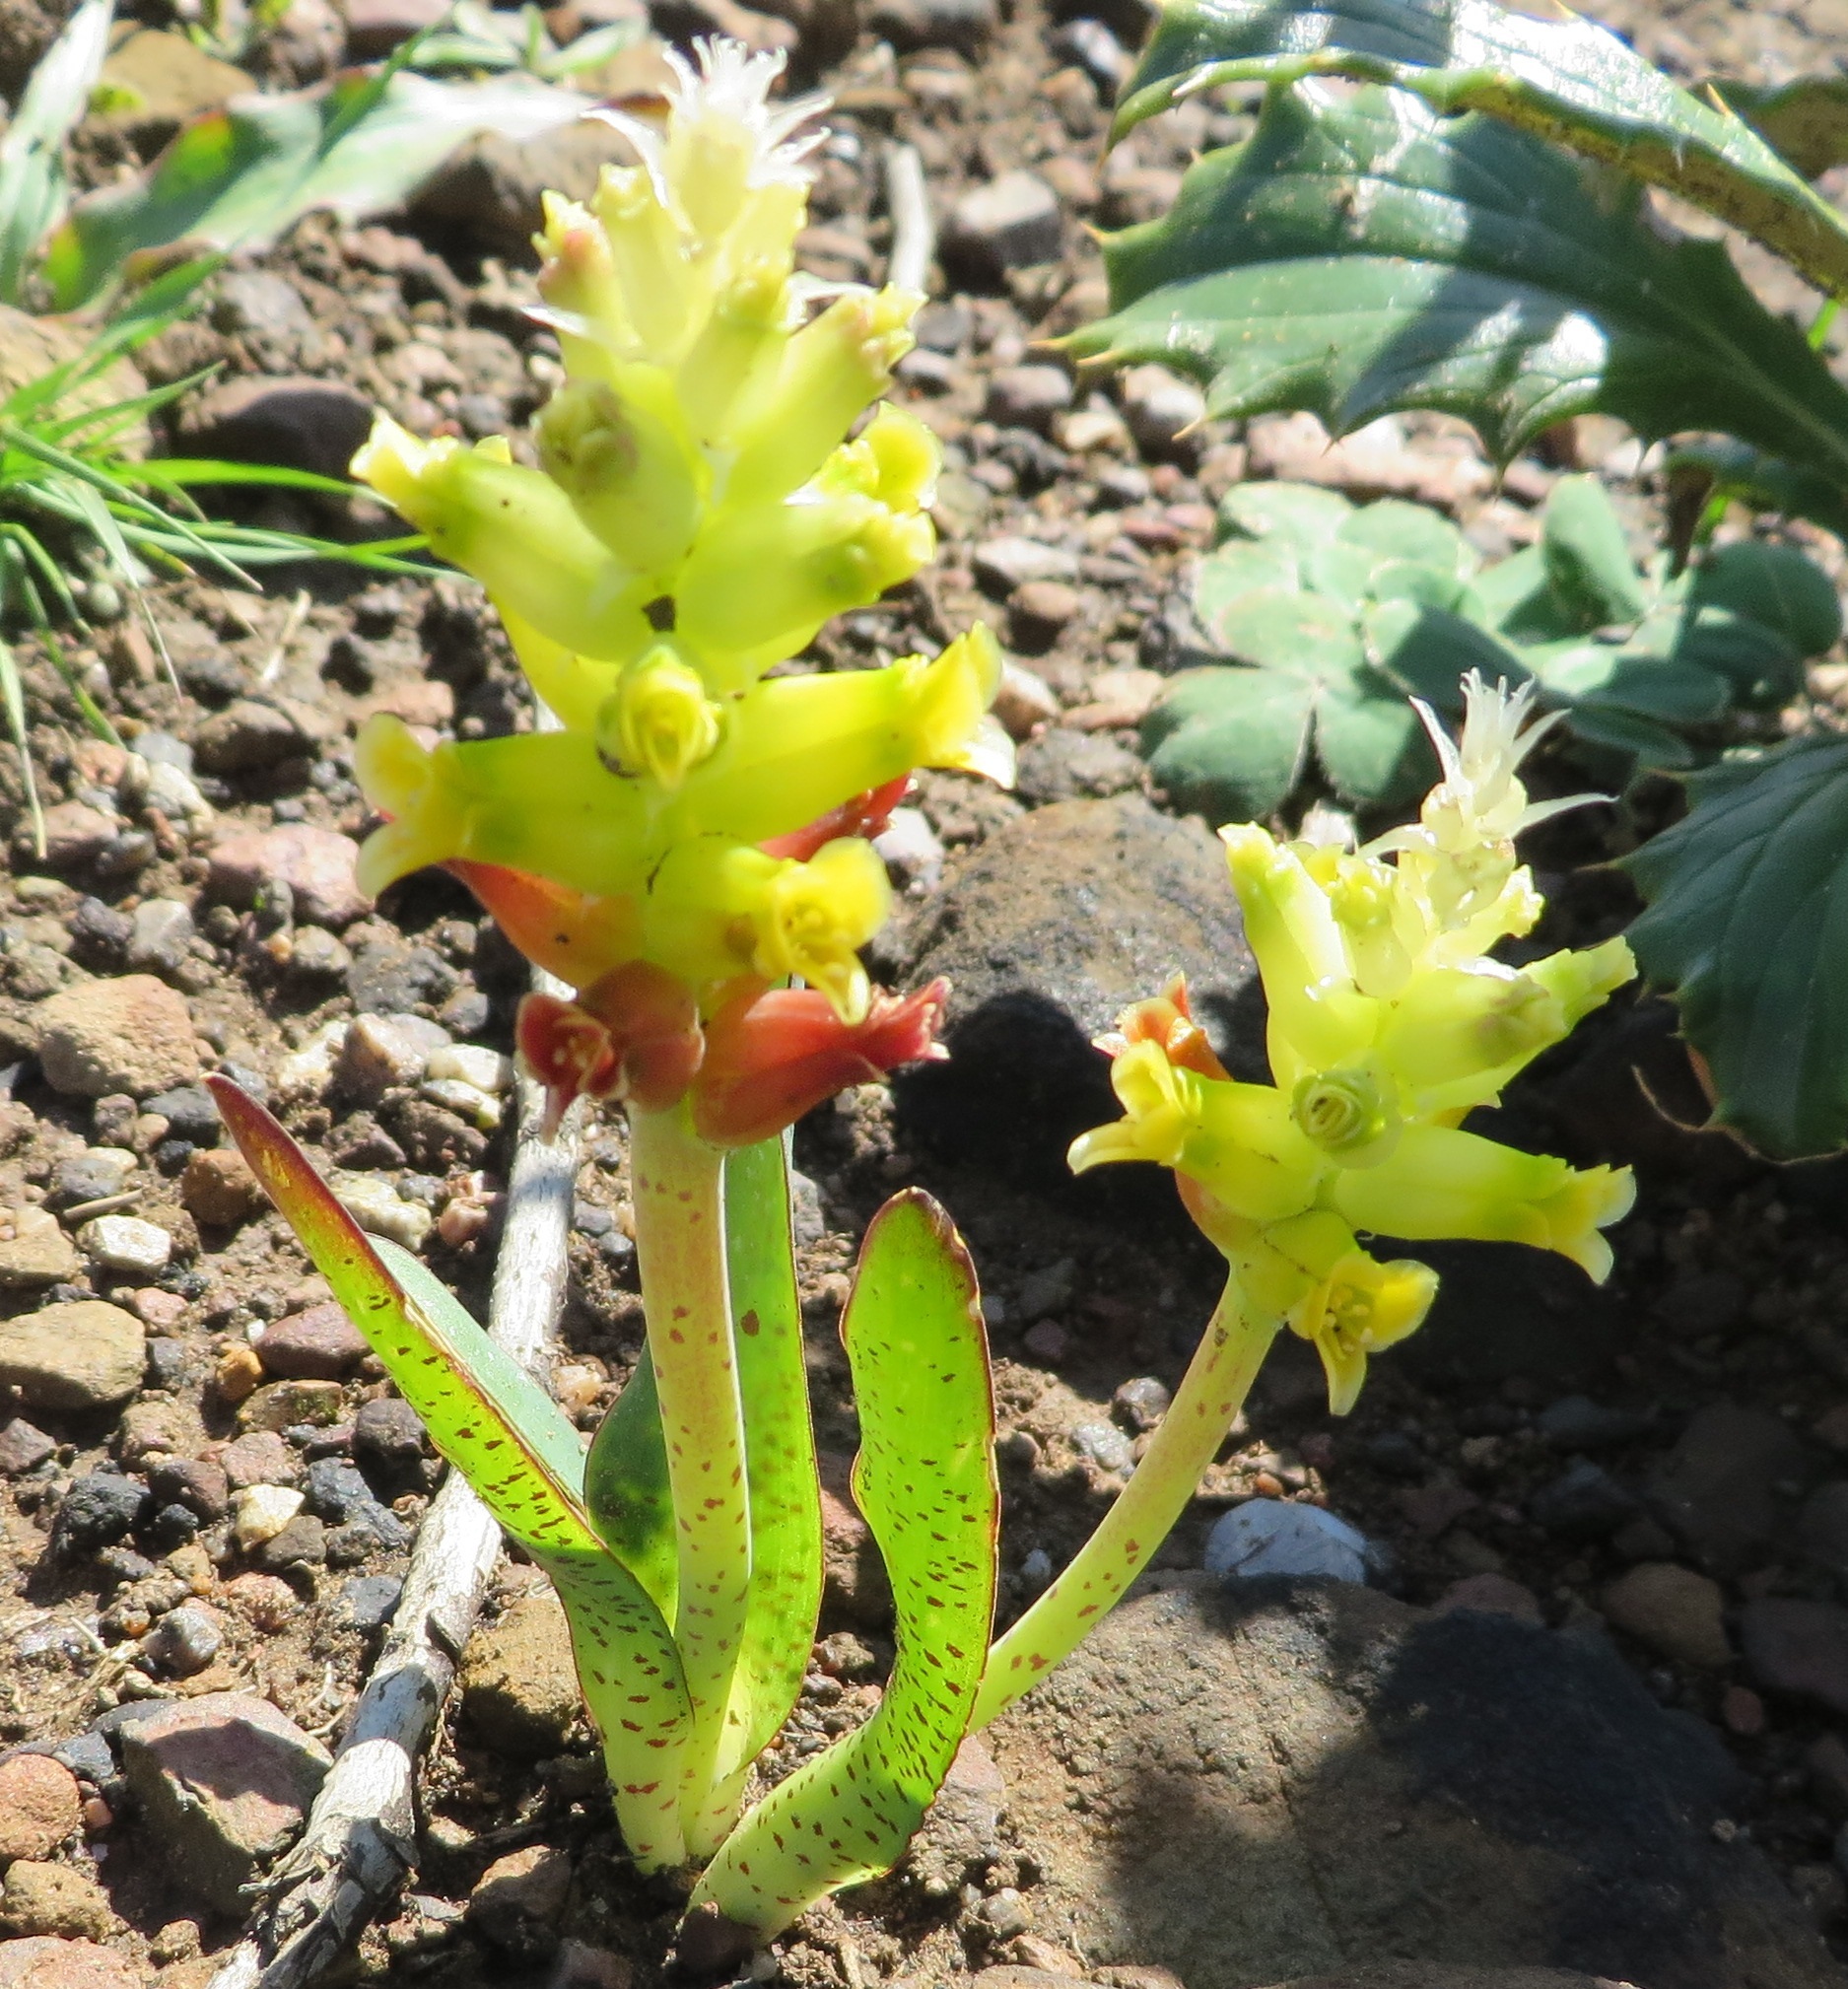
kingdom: Plantae
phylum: Tracheophyta
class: Liliopsida
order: Asparagales
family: Asparagaceae
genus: Lachenalia
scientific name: Lachenalia orchioides
